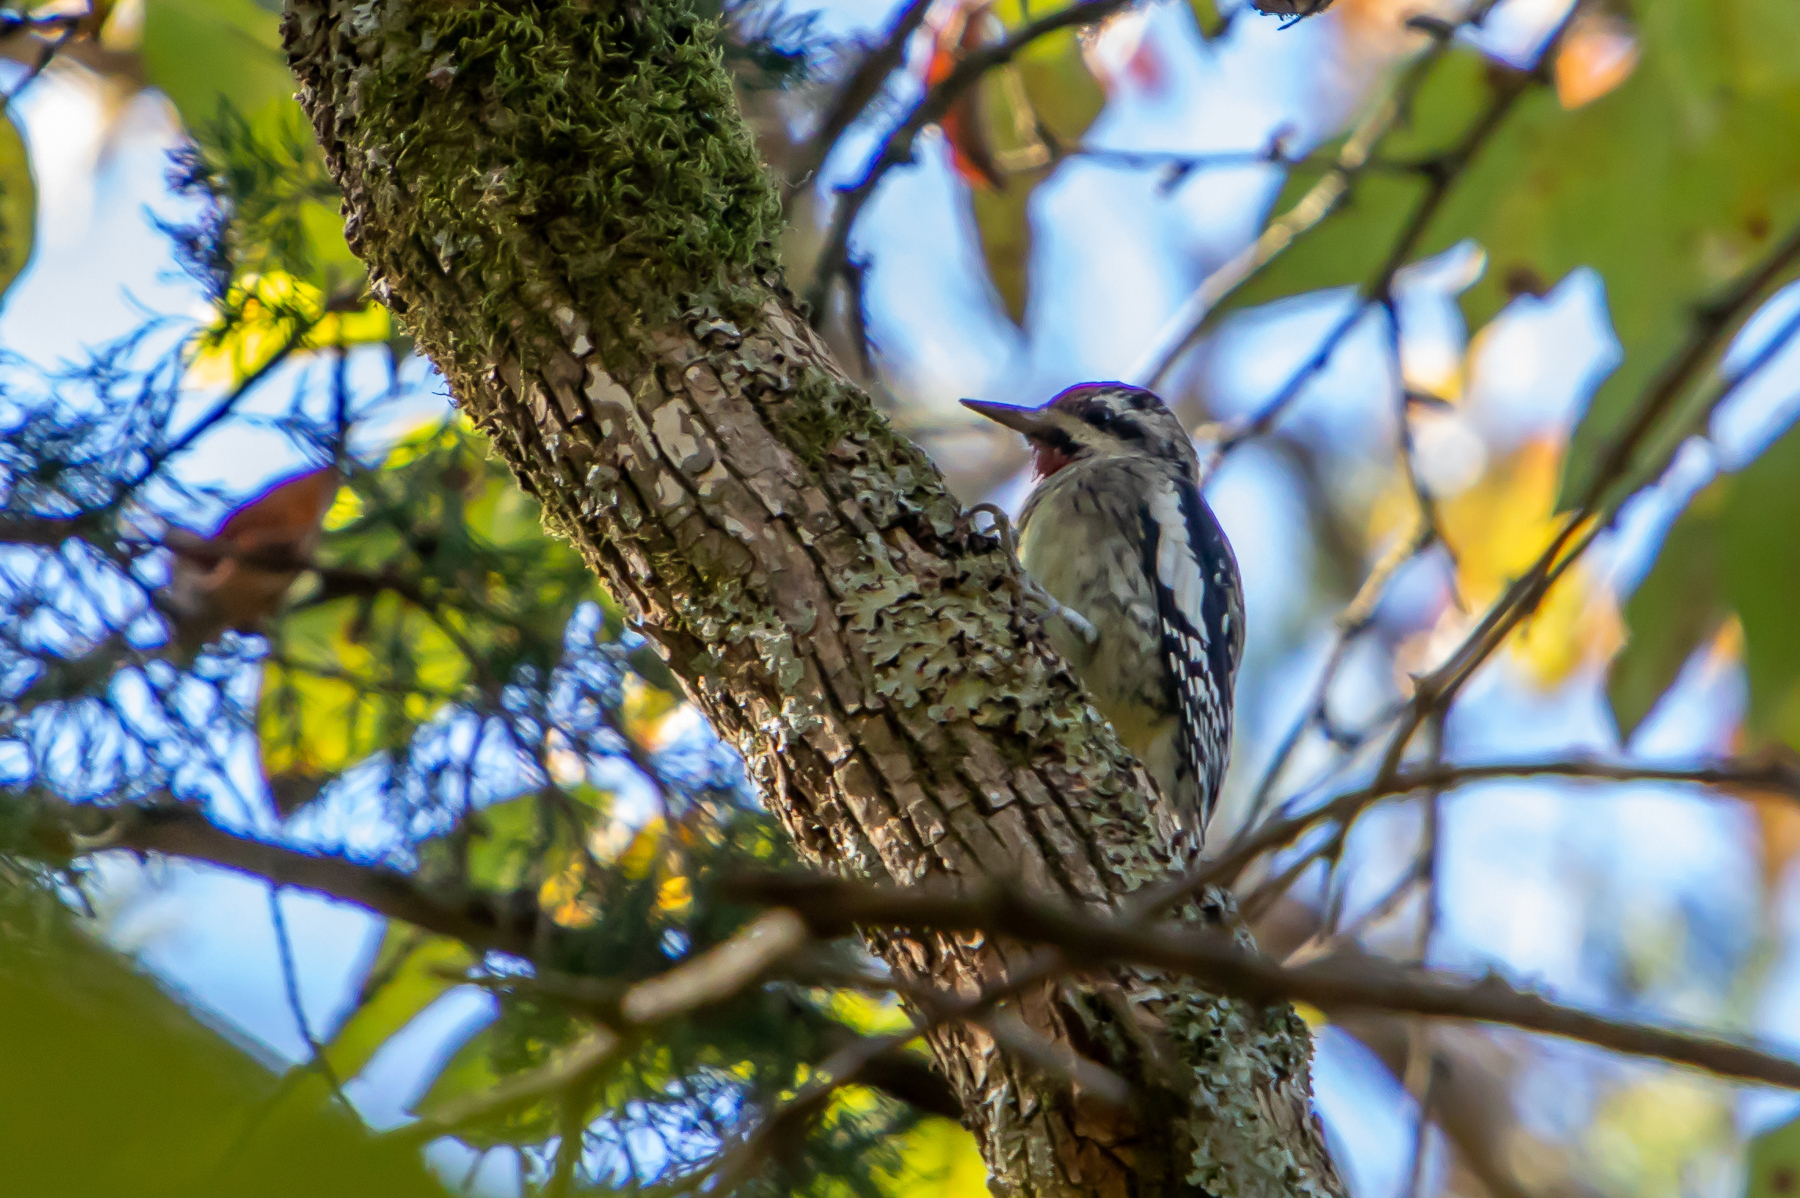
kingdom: Animalia
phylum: Chordata
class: Aves
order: Piciformes
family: Picidae
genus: Sphyrapicus
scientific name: Sphyrapicus varius
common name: Yellow-bellied sapsucker
